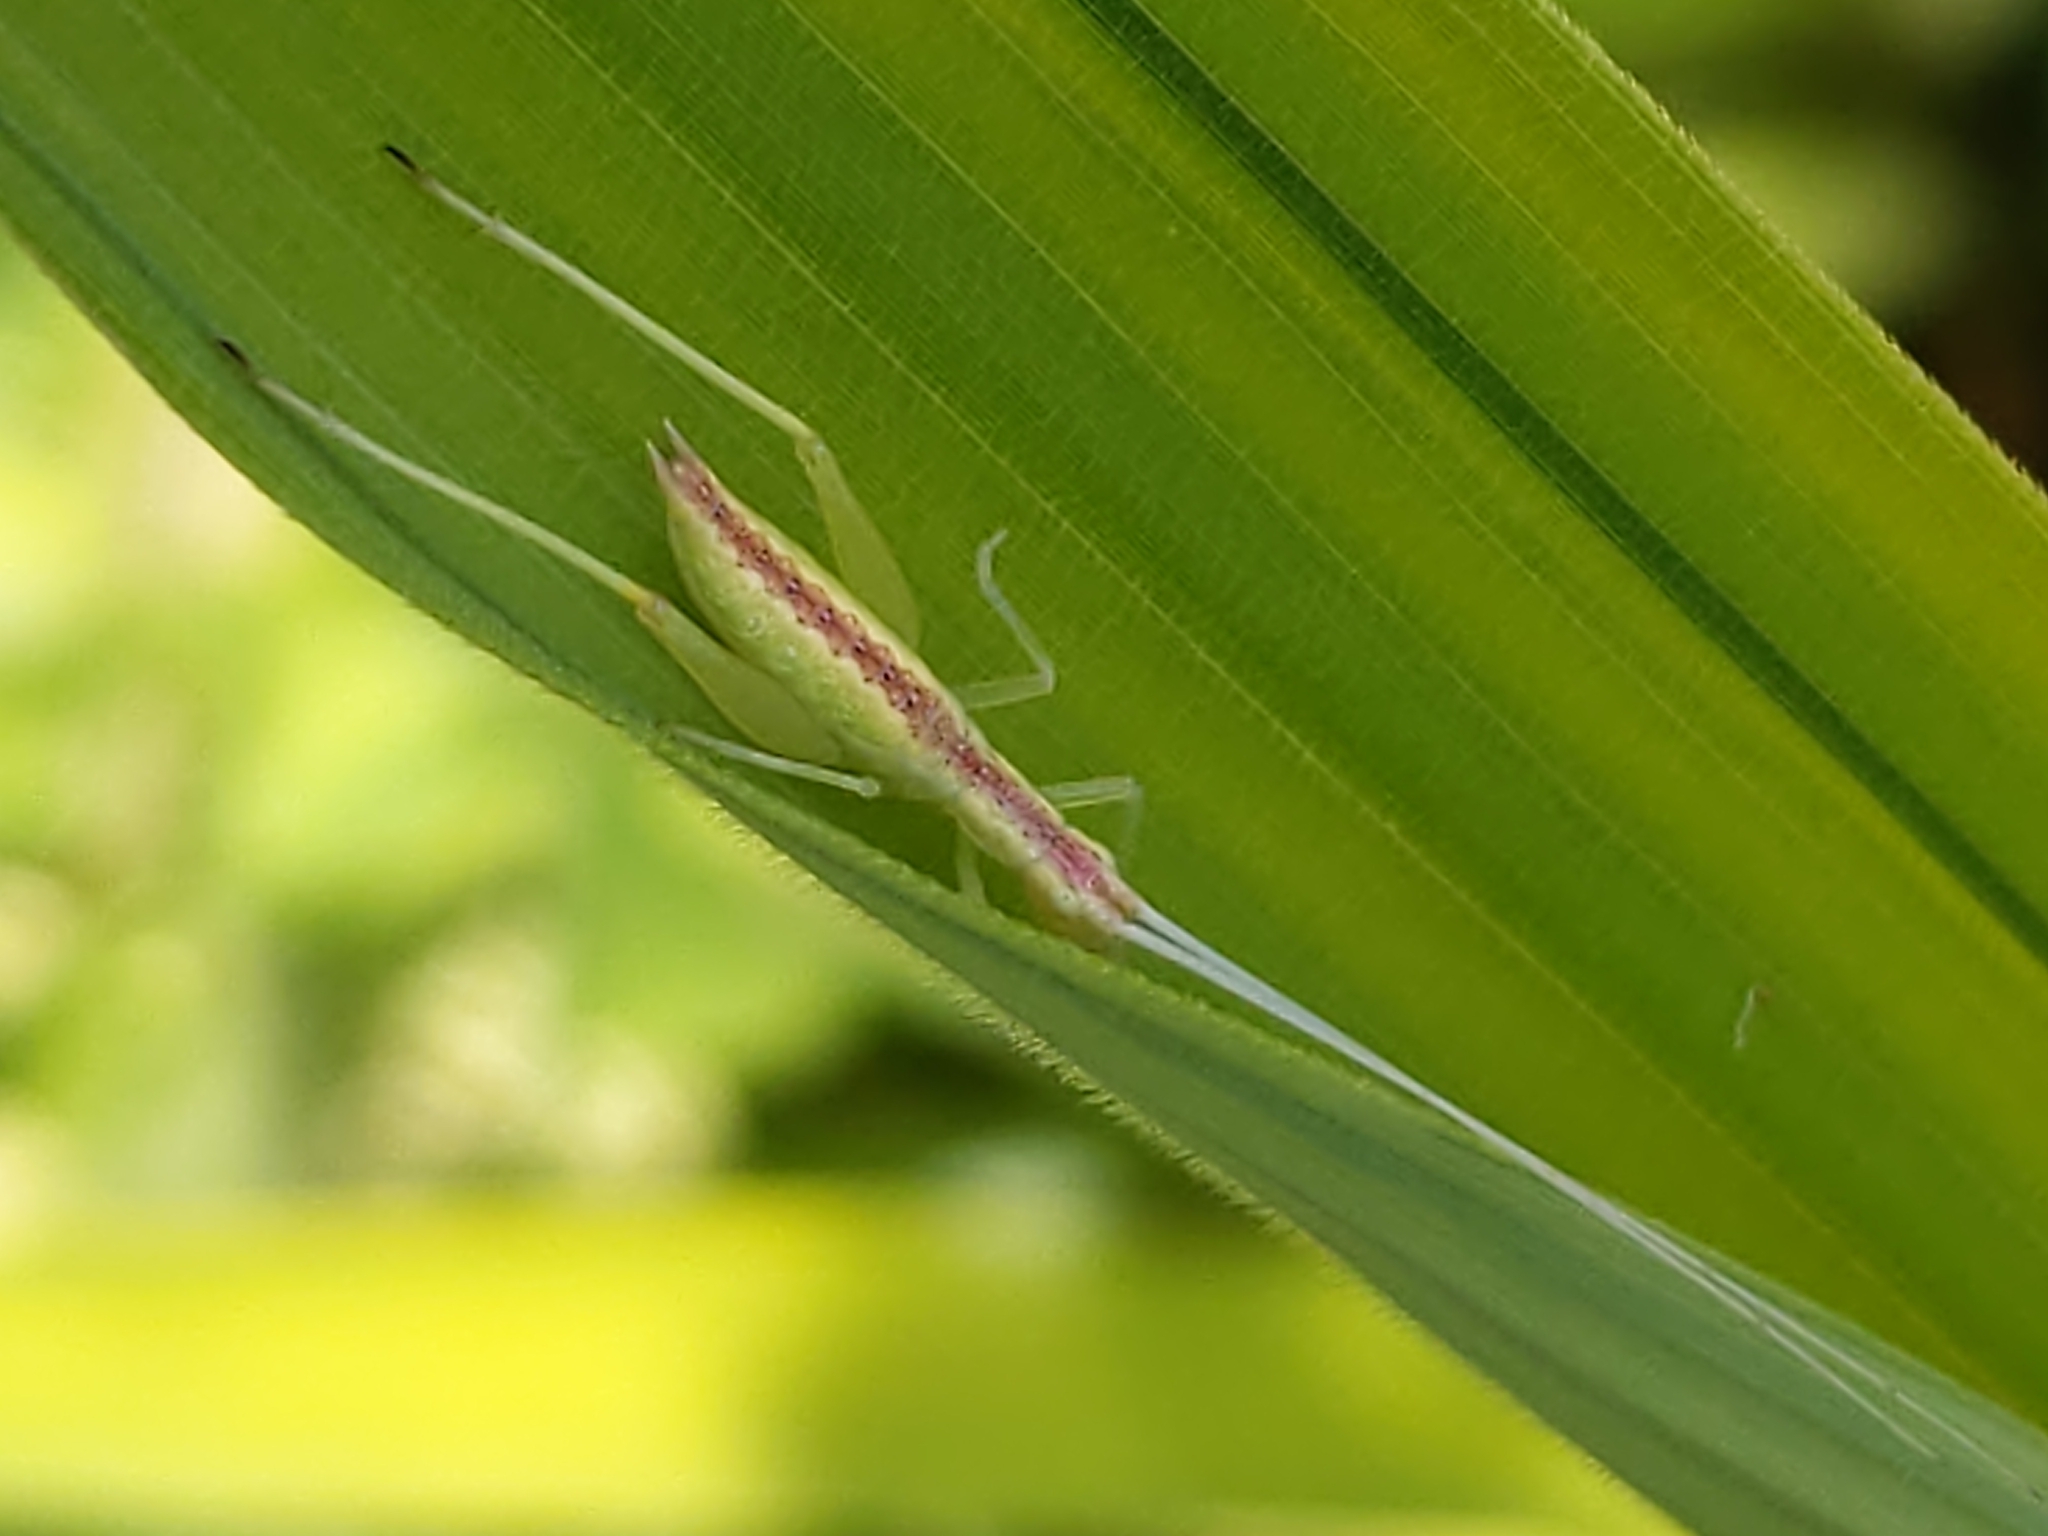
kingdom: Animalia
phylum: Arthropoda
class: Insecta
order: Orthoptera
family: Gryllidae
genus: Oecanthus
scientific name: Oecanthus latipennis
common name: Broad-winged tree cricket
